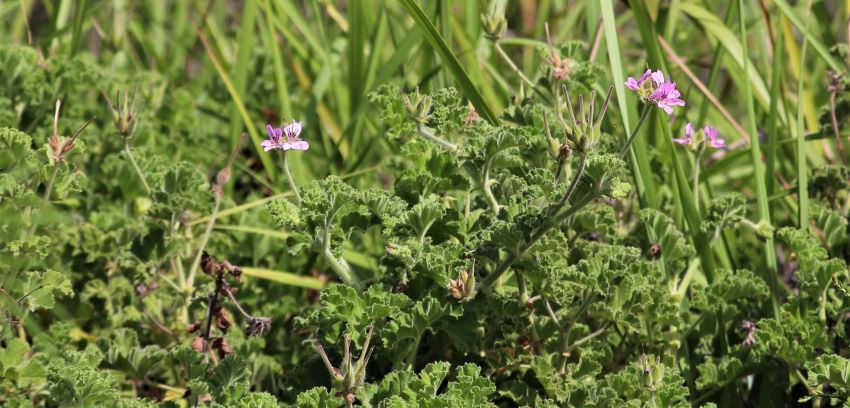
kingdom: Plantae
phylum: Tracheophyta
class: Magnoliopsida
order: Geraniales
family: Geraniaceae
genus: Pelargonium
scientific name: Pelargonium capitatum
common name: Rose scented geranium
